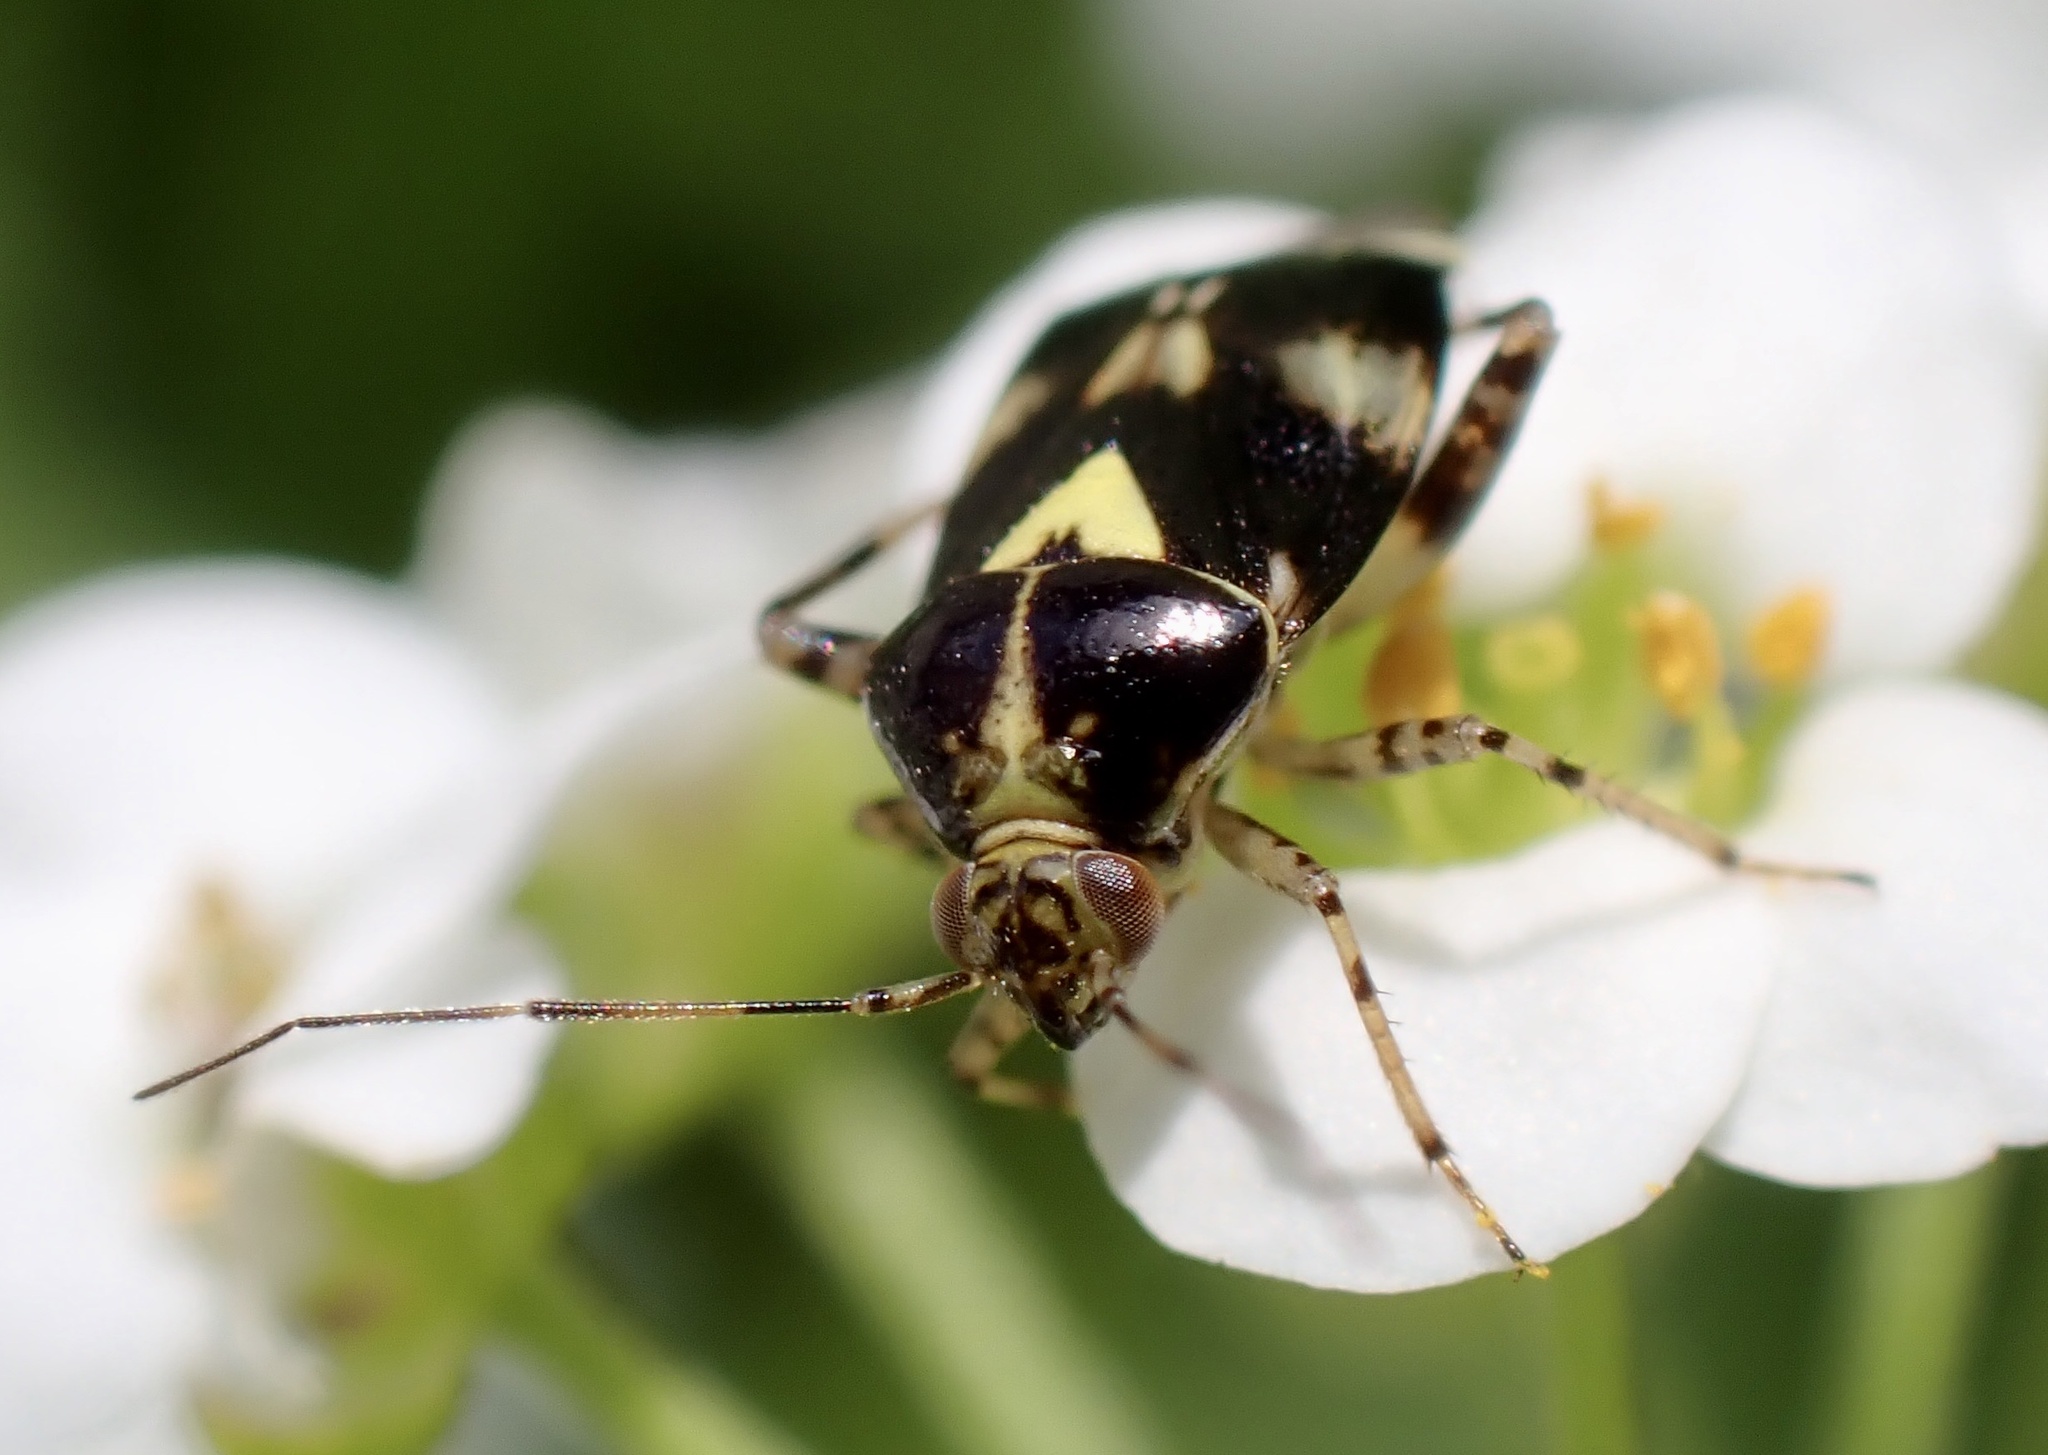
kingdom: Animalia
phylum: Arthropoda
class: Insecta
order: Hemiptera
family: Miridae
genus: Liocoris
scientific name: Liocoris tripustulatus
